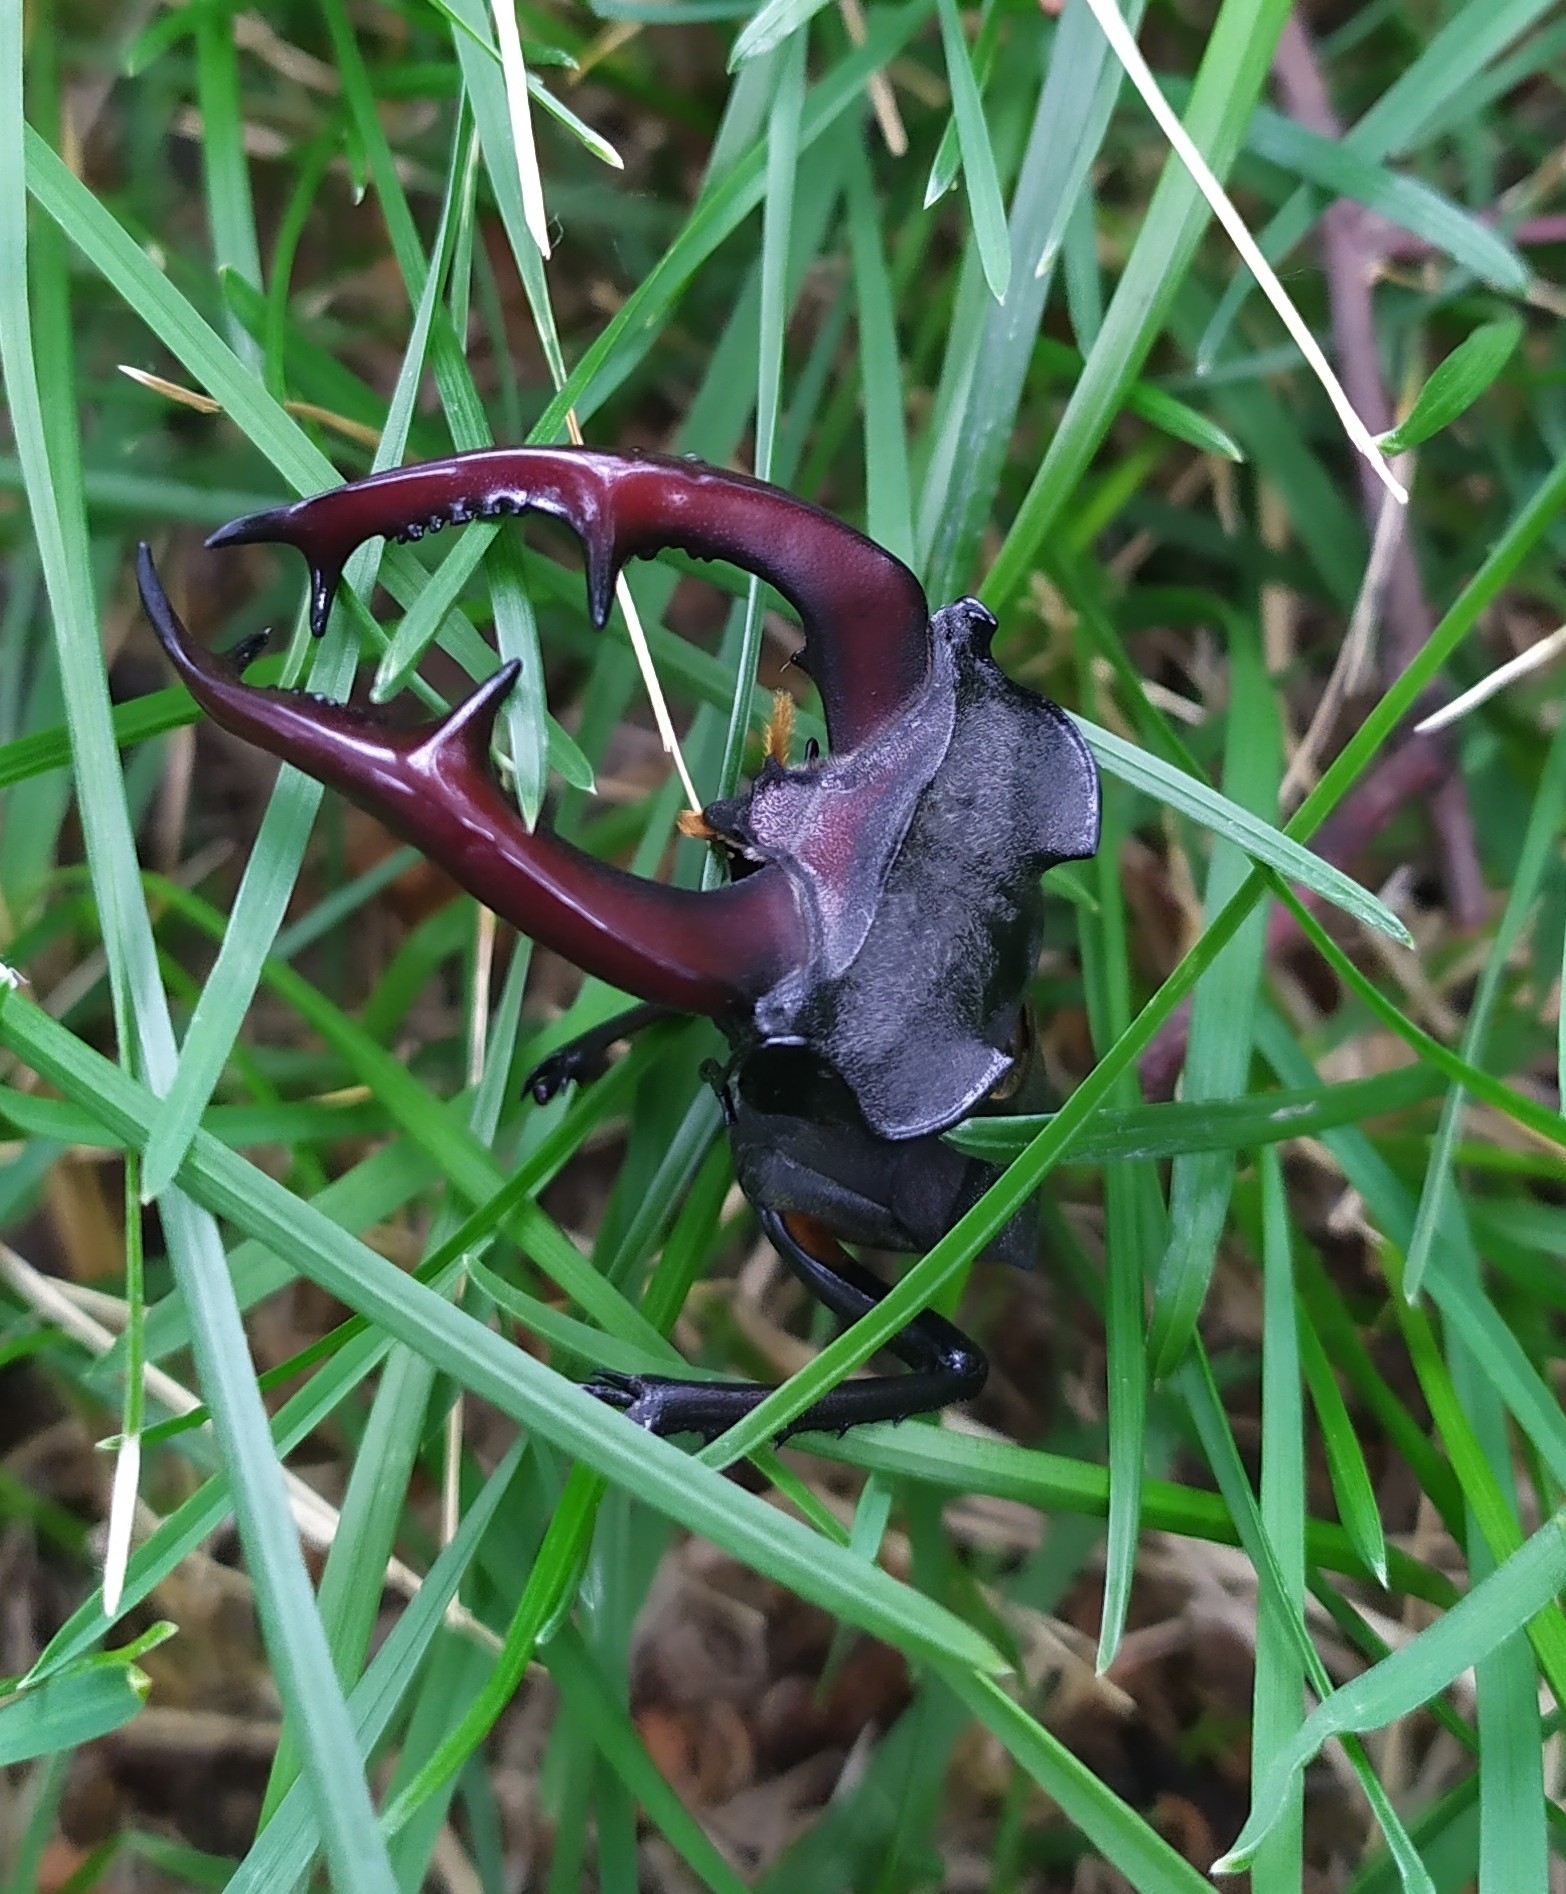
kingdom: Animalia
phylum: Arthropoda
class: Insecta
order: Coleoptera
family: Lucanidae
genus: Lucanus
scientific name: Lucanus cervus
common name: Stag beetle
